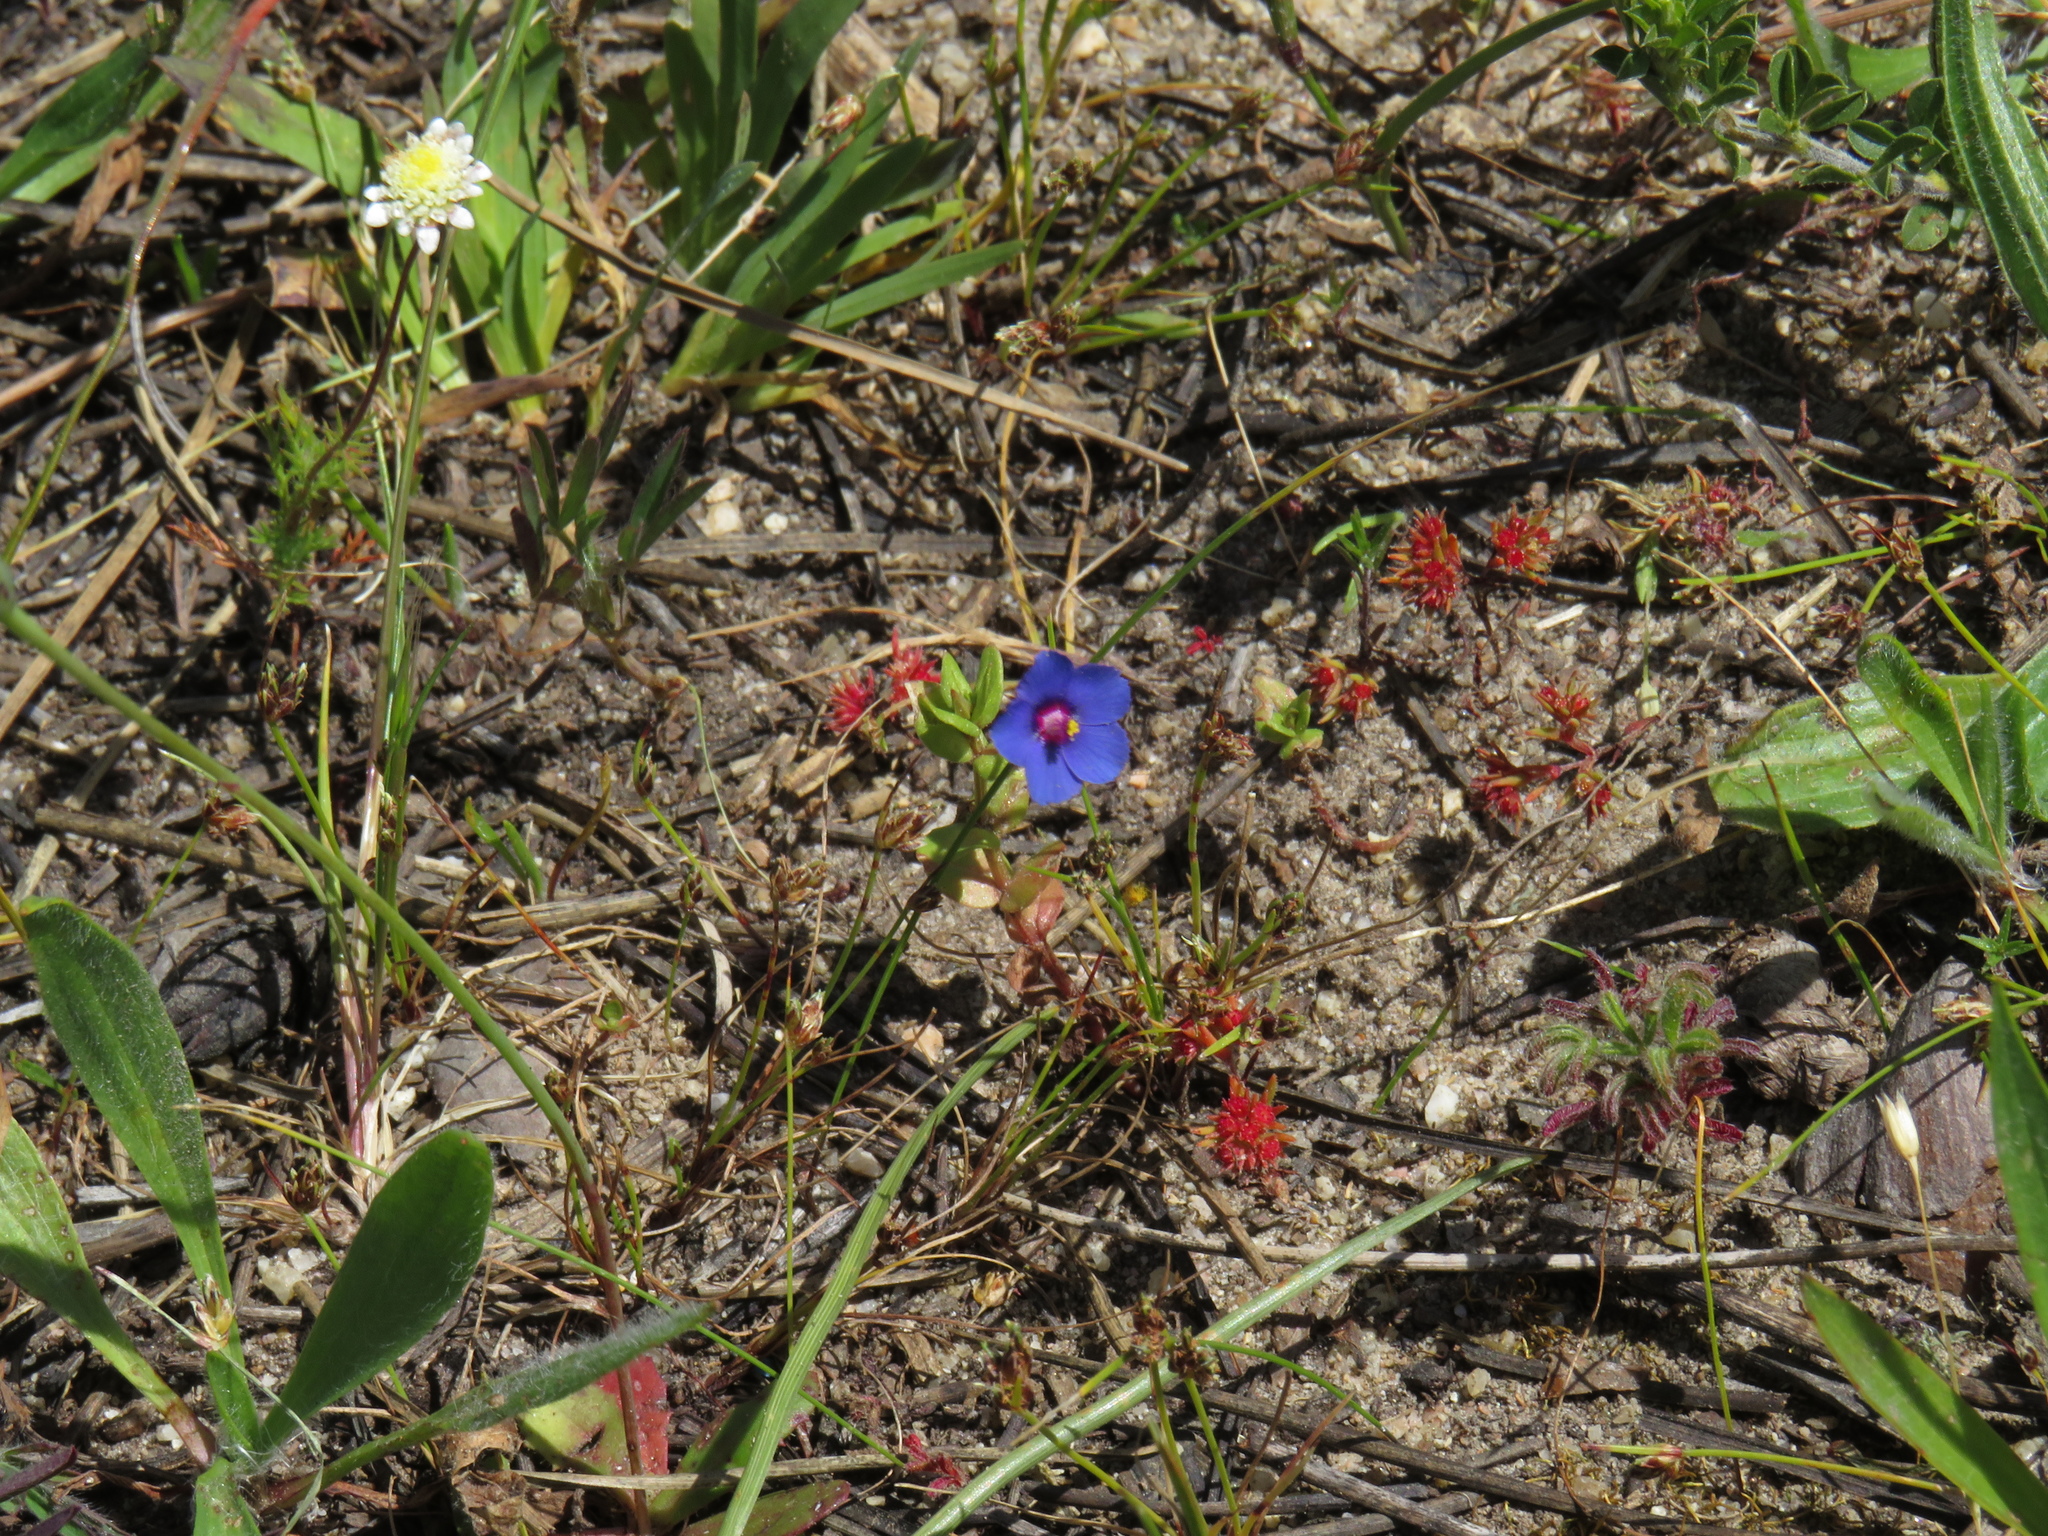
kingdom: Plantae
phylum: Tracheophyta
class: Magnoliopsida
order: Ericales
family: Primulaceae
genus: Lysimachia
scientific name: Lysimachia loeflingii
